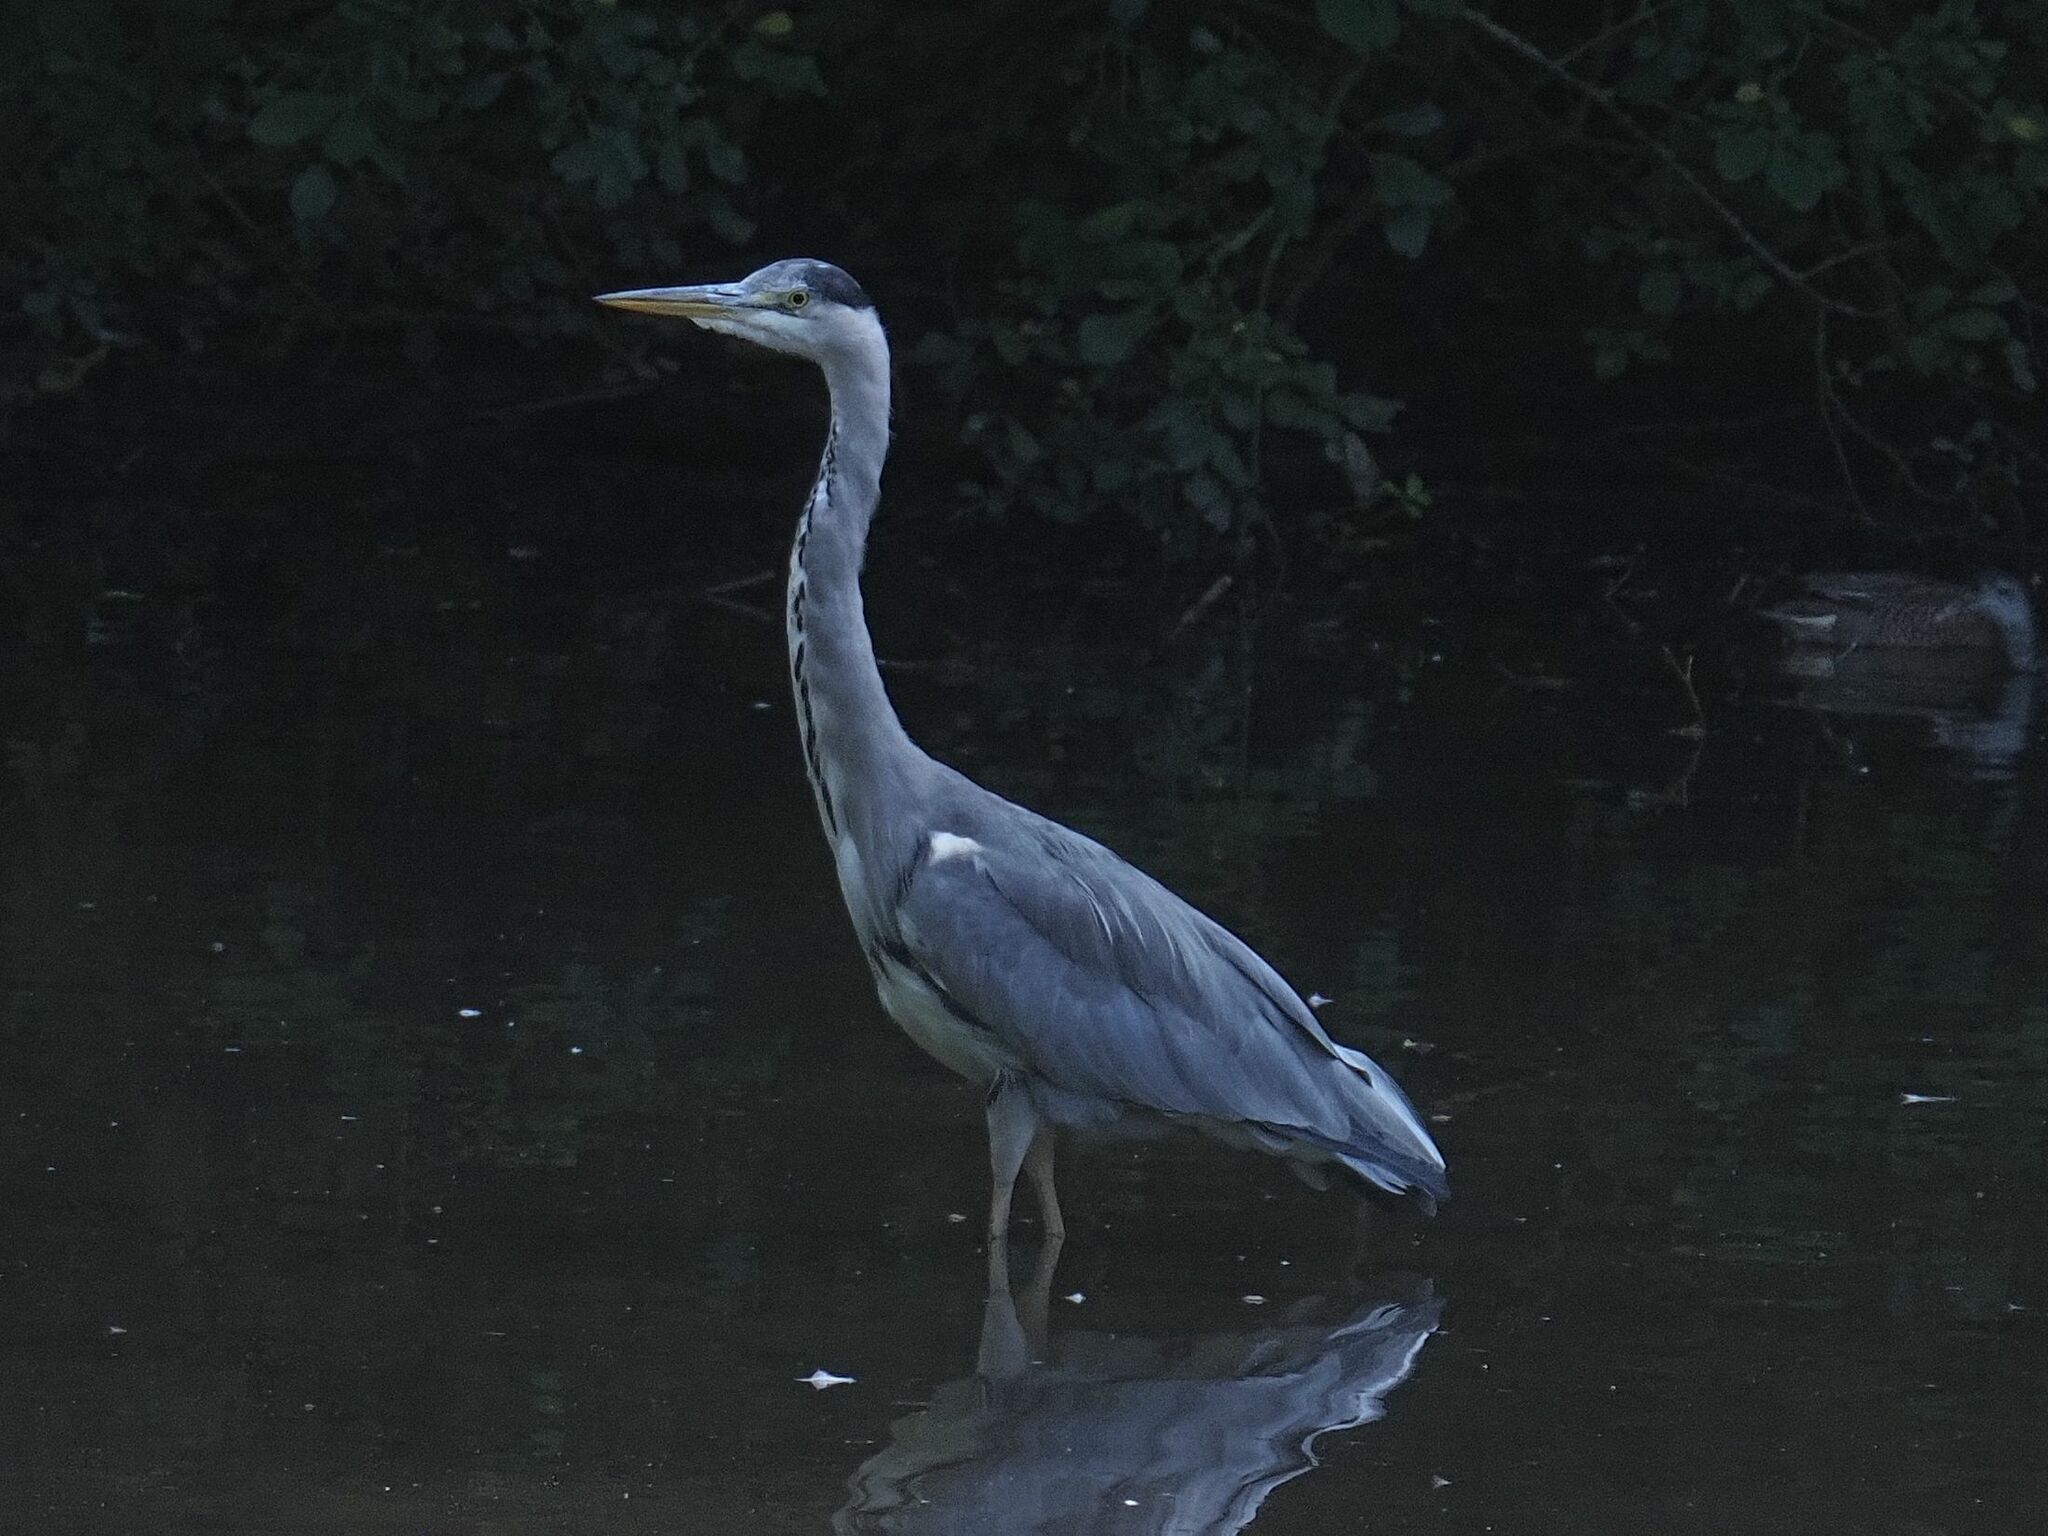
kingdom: Animalia
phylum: Chordata
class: Aves
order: Pelecaniformes
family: Ardeidae
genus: Ardea
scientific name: Ardea cinerea
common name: Grey heron
